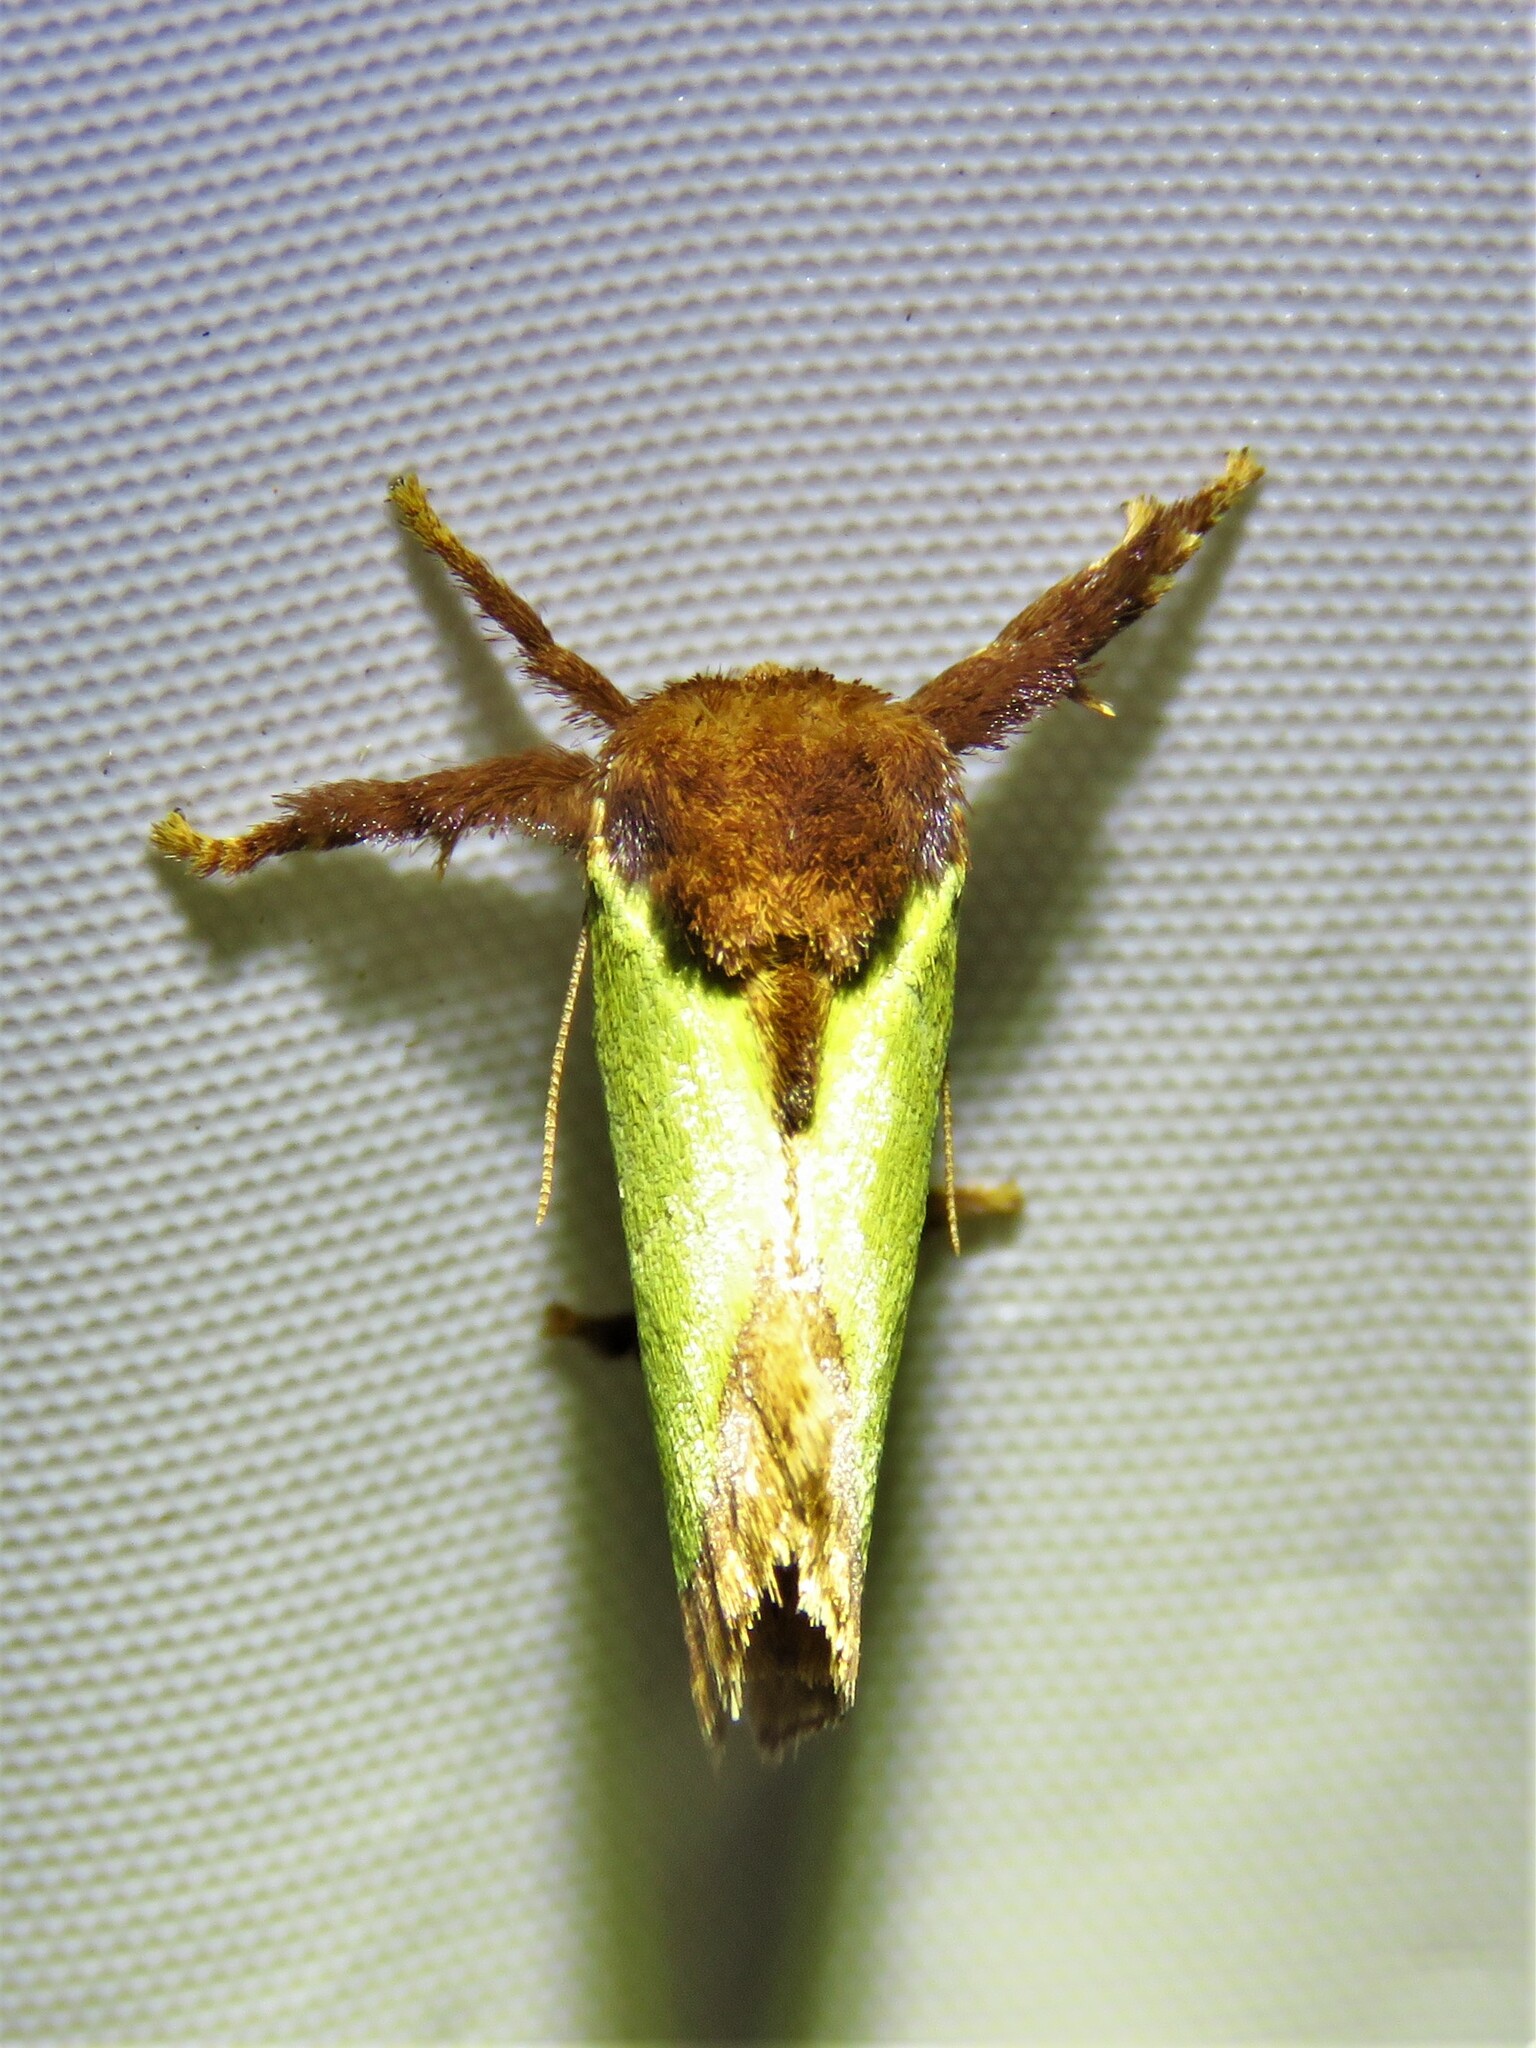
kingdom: Animalia
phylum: Arthropoda
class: Insecta
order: Lepidoptera
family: Limacodidae
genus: Euclea
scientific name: Euclea incisa
